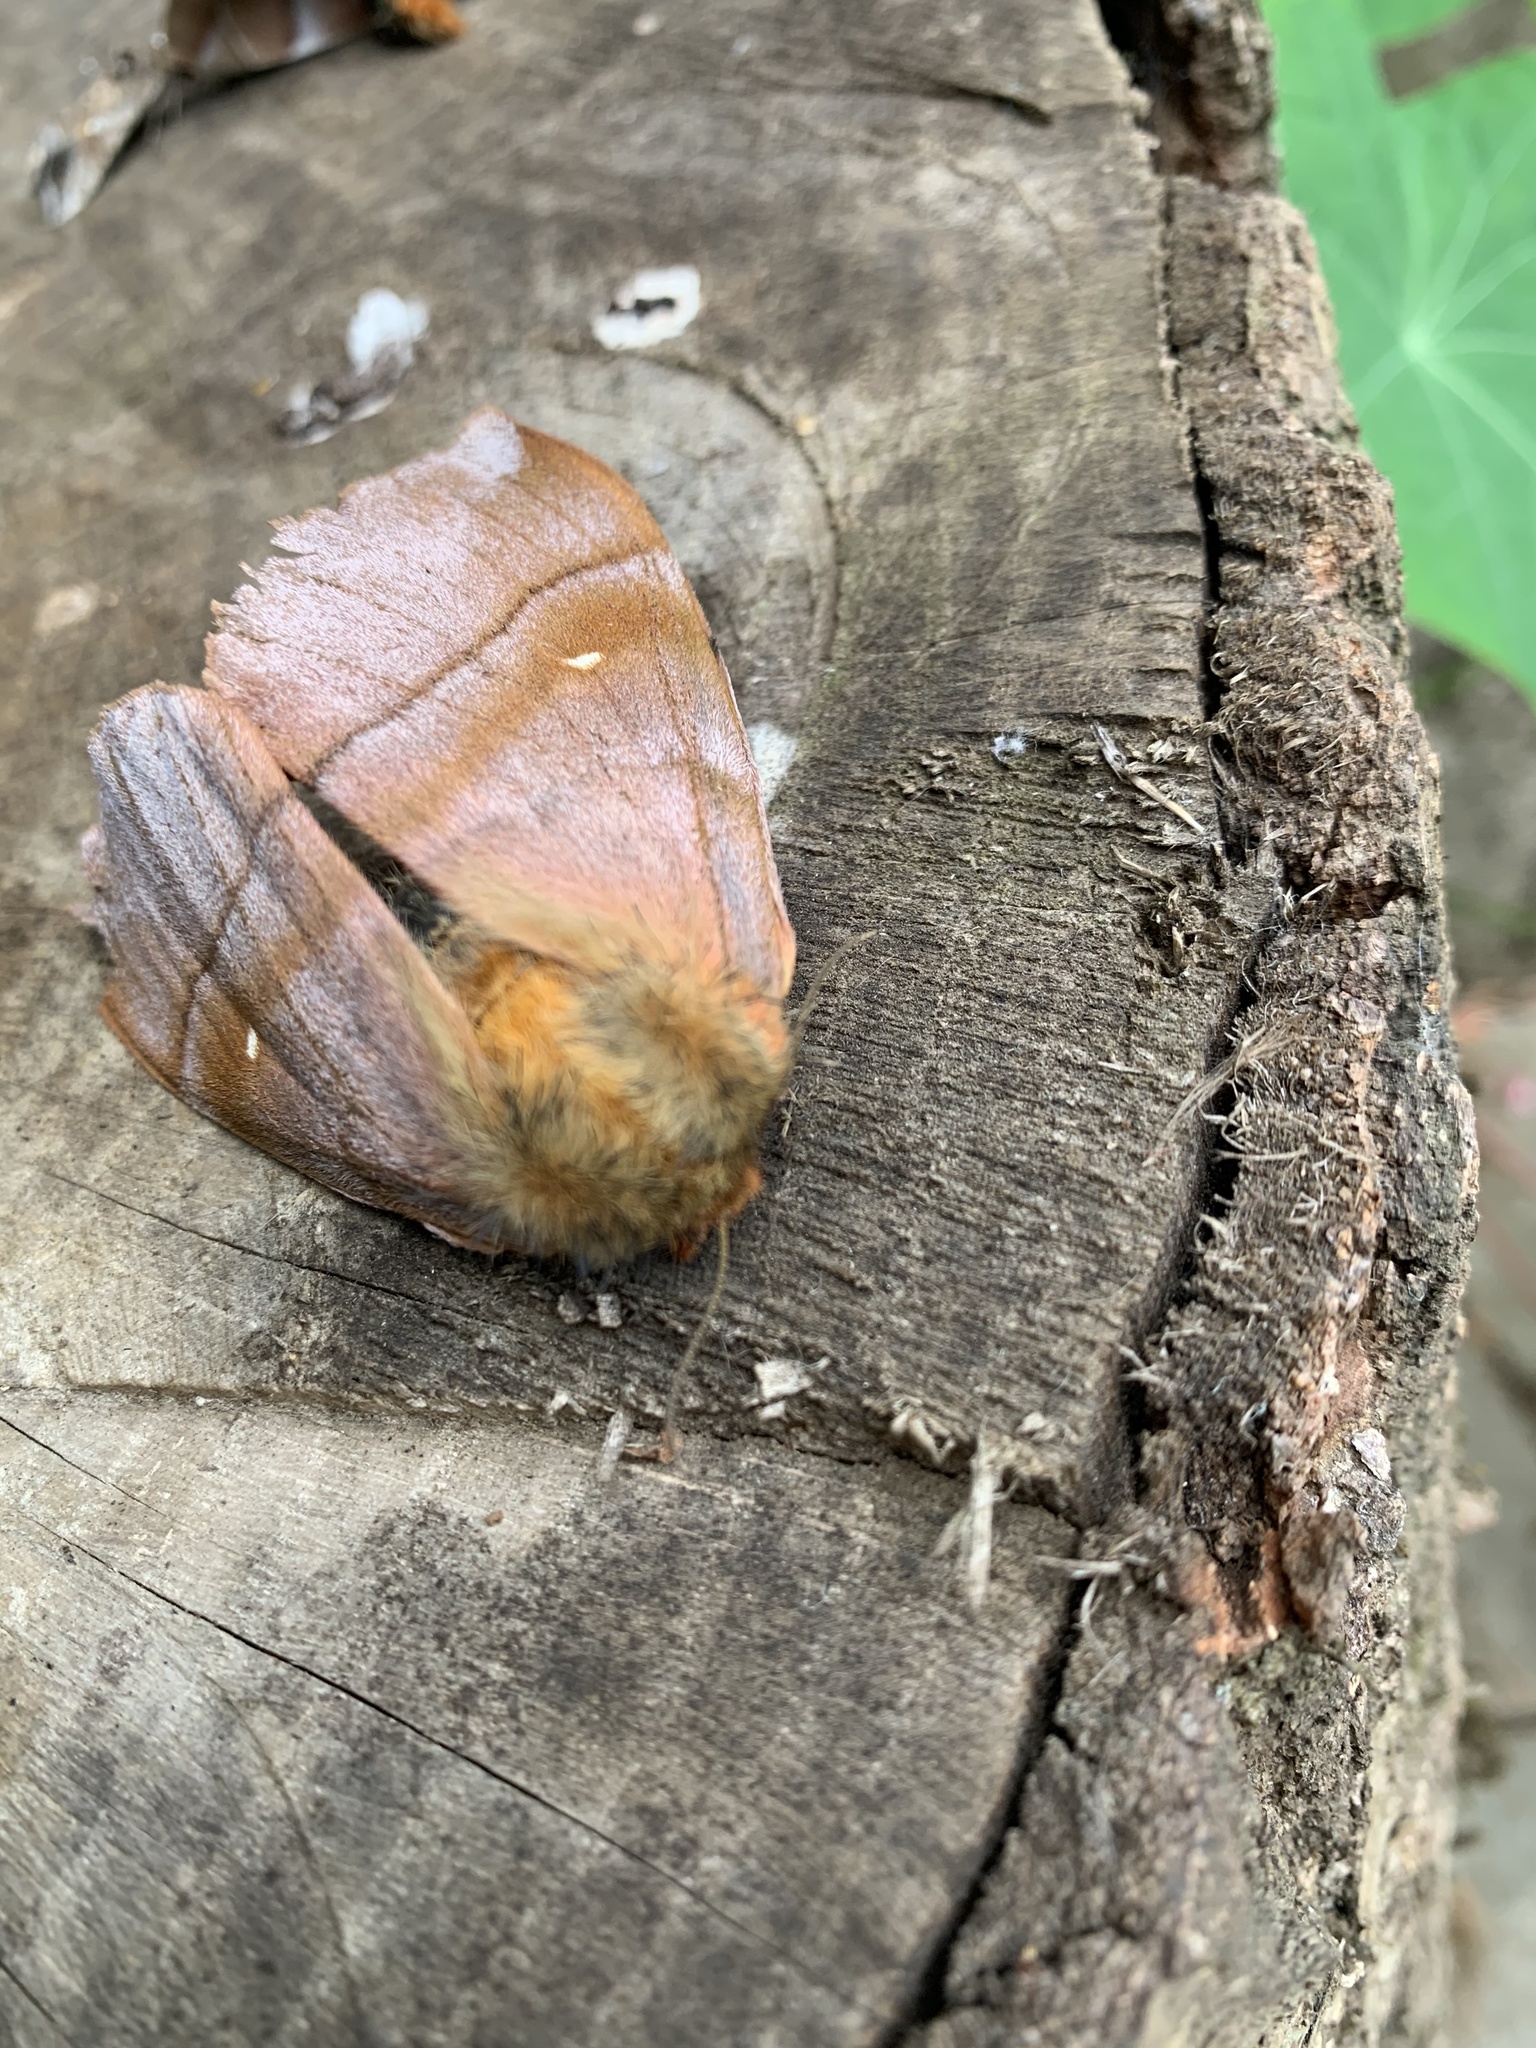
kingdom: Animalia
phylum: Arthropoda
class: Insecta
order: Lepidoptera
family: Saturniidae
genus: Ormiscodes
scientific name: Ormiscodes cinnamomea
